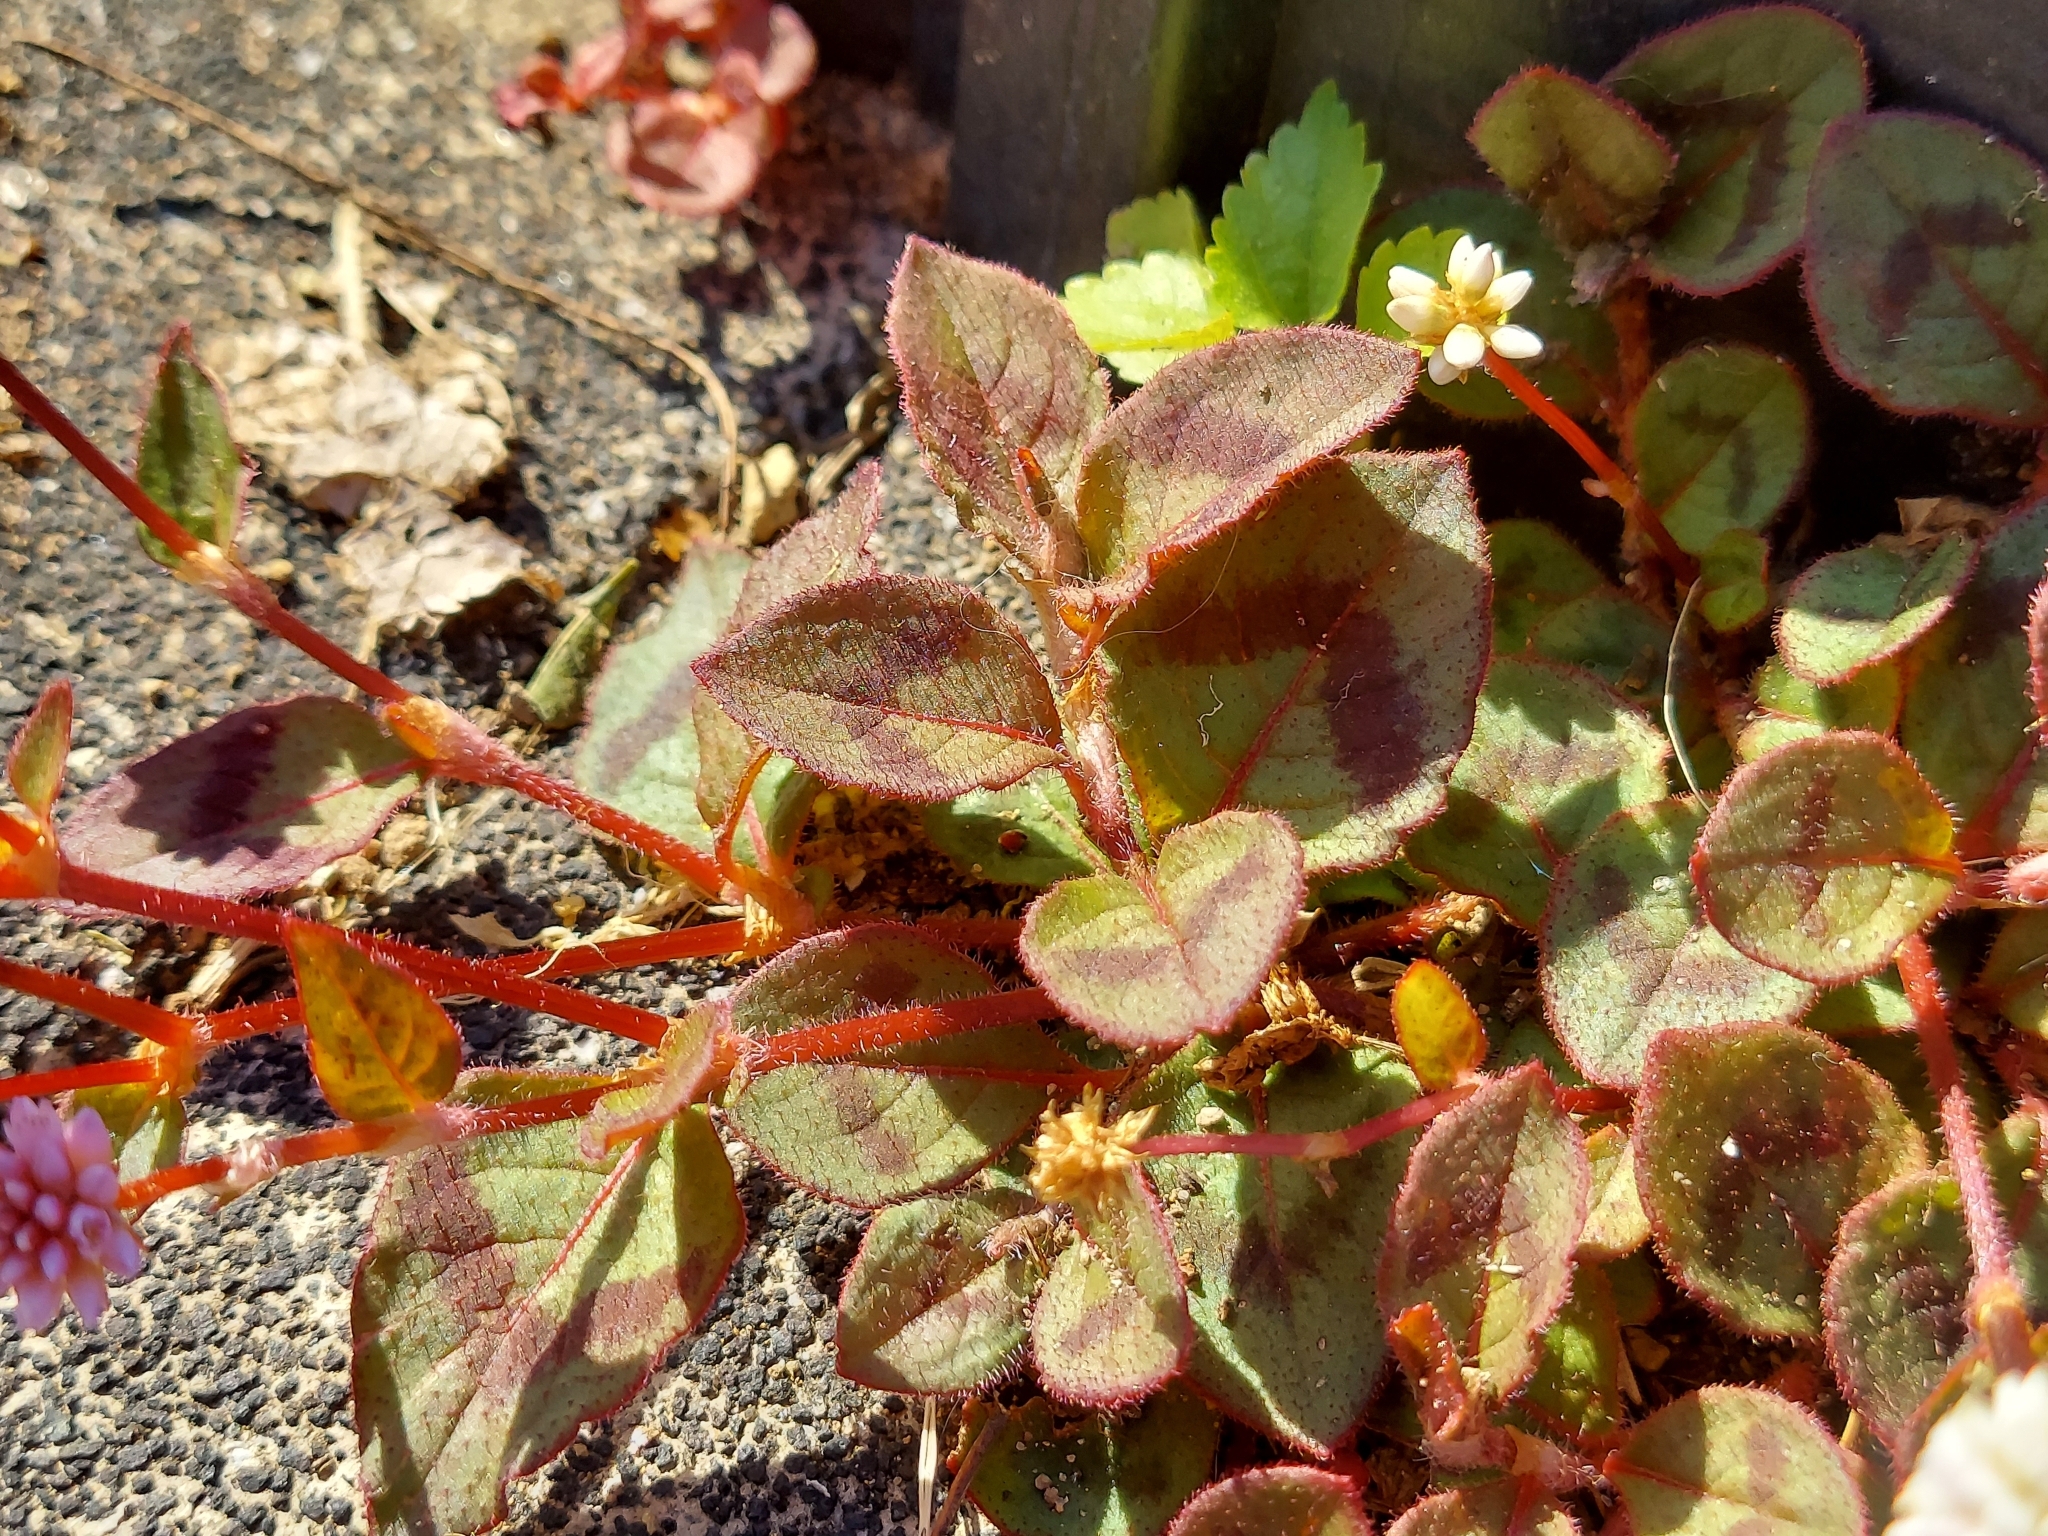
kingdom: Plantae
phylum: Tracheophyta
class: Magnoliopsida
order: Caryophyllales
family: Polygonaceae
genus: Persicaria
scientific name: Persicaria capitata
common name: Pinkhead smartweed
